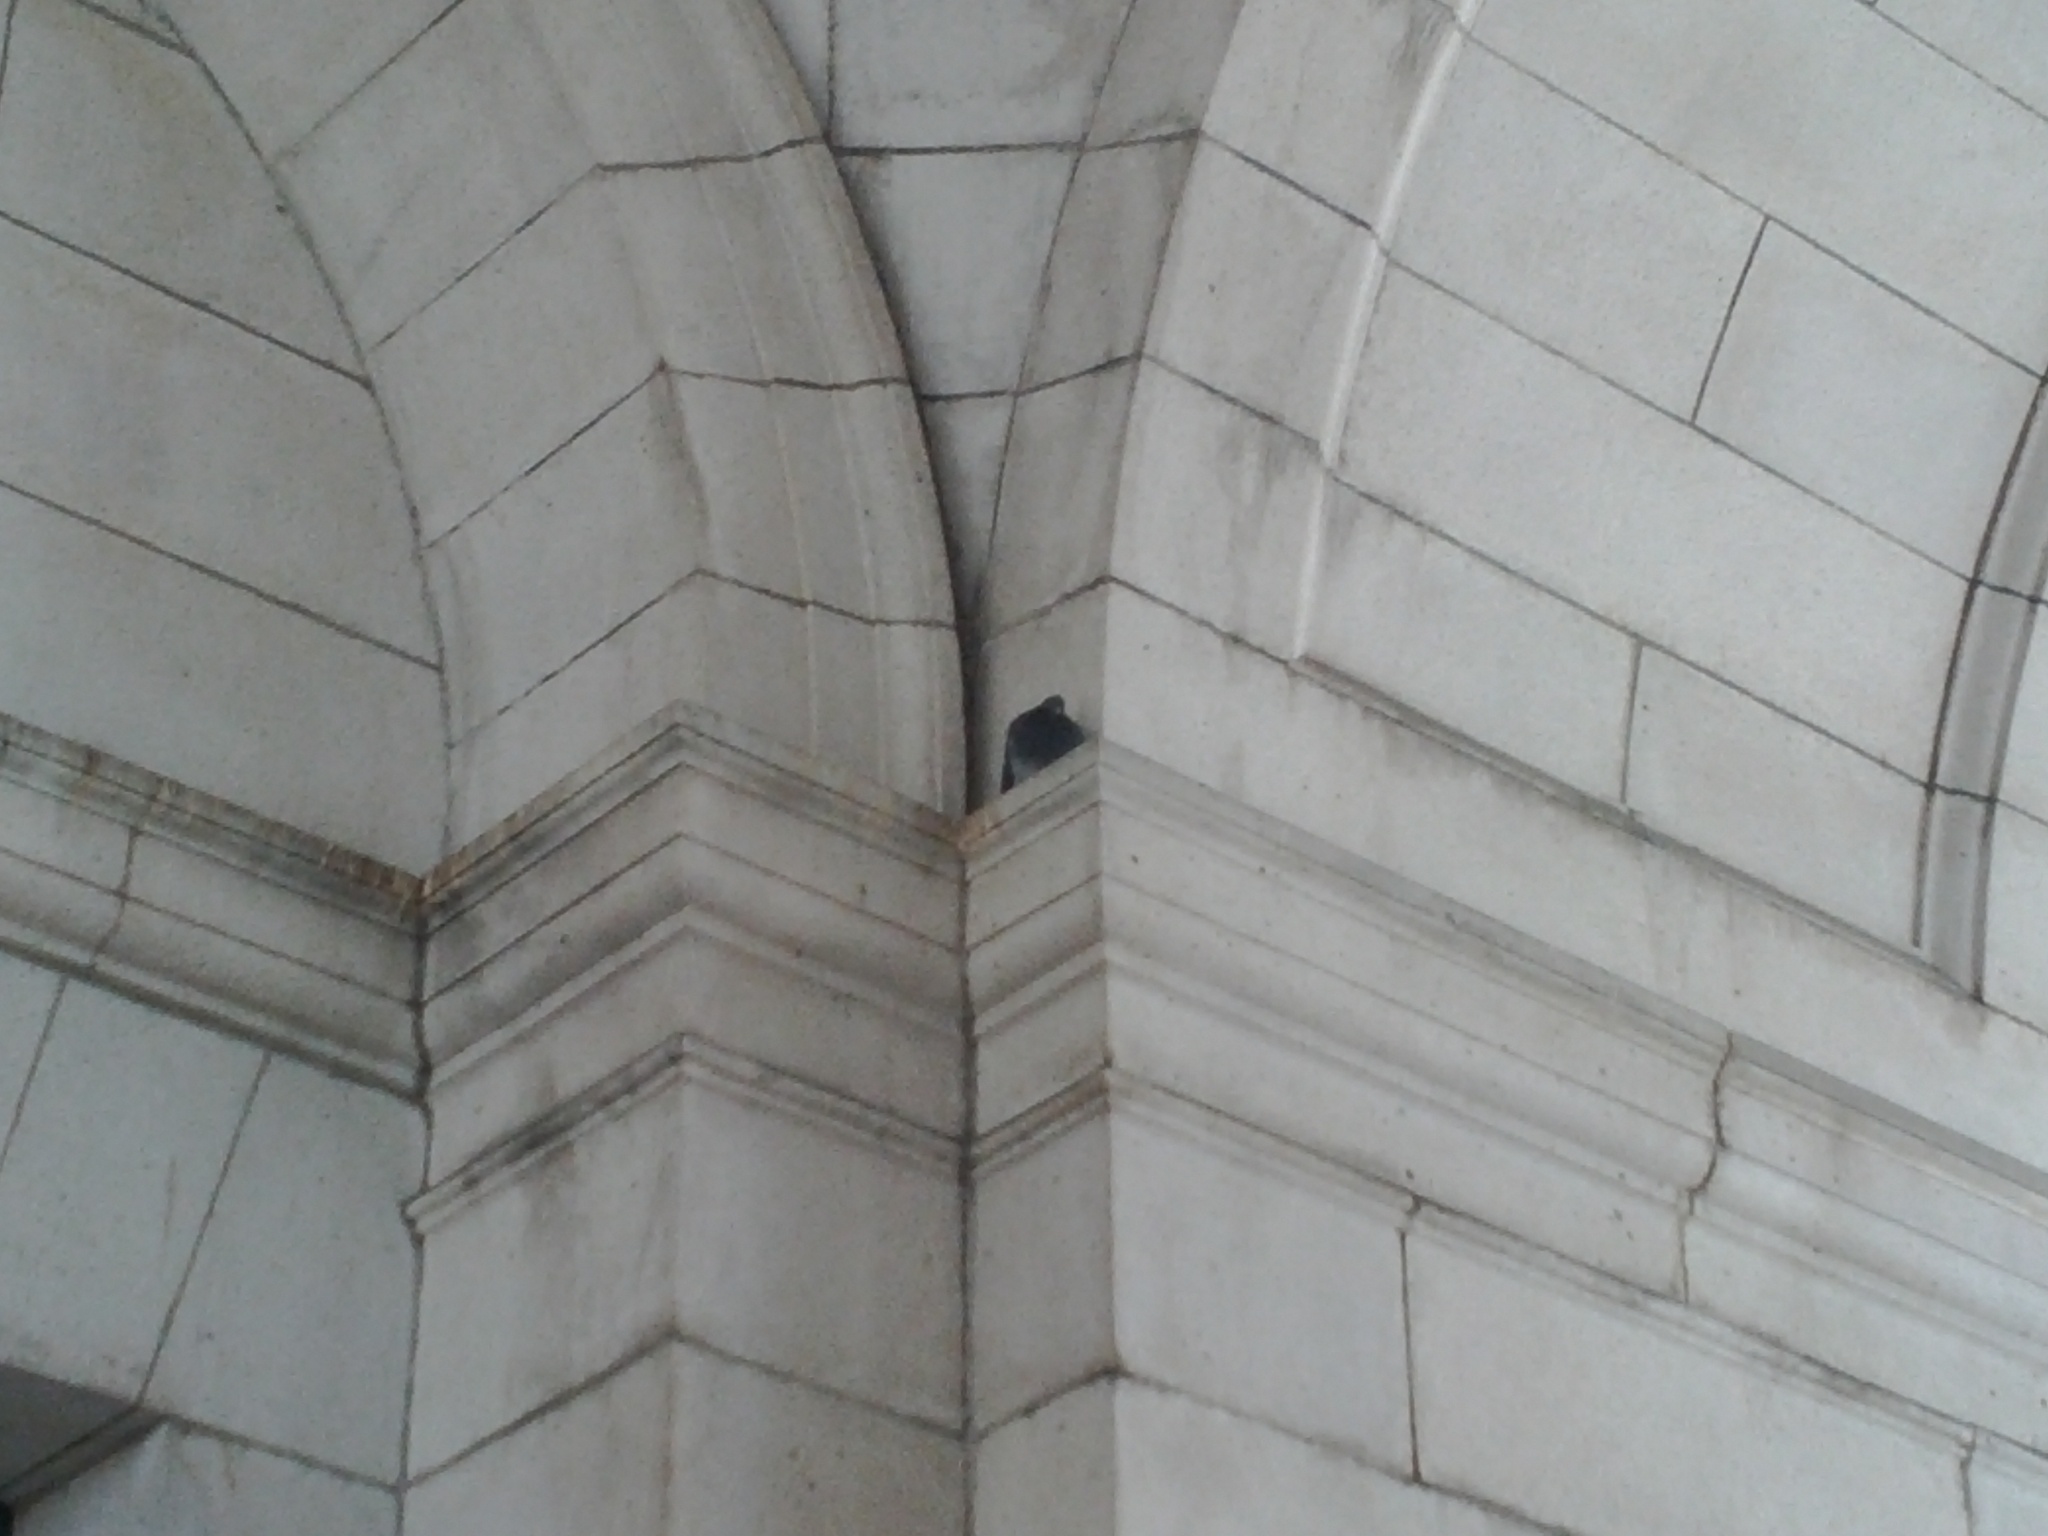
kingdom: Animalia
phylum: Chordata
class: Aves
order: Columbiformes
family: Columbidae
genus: Columba
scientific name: Columba livia
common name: Rock pigeon
